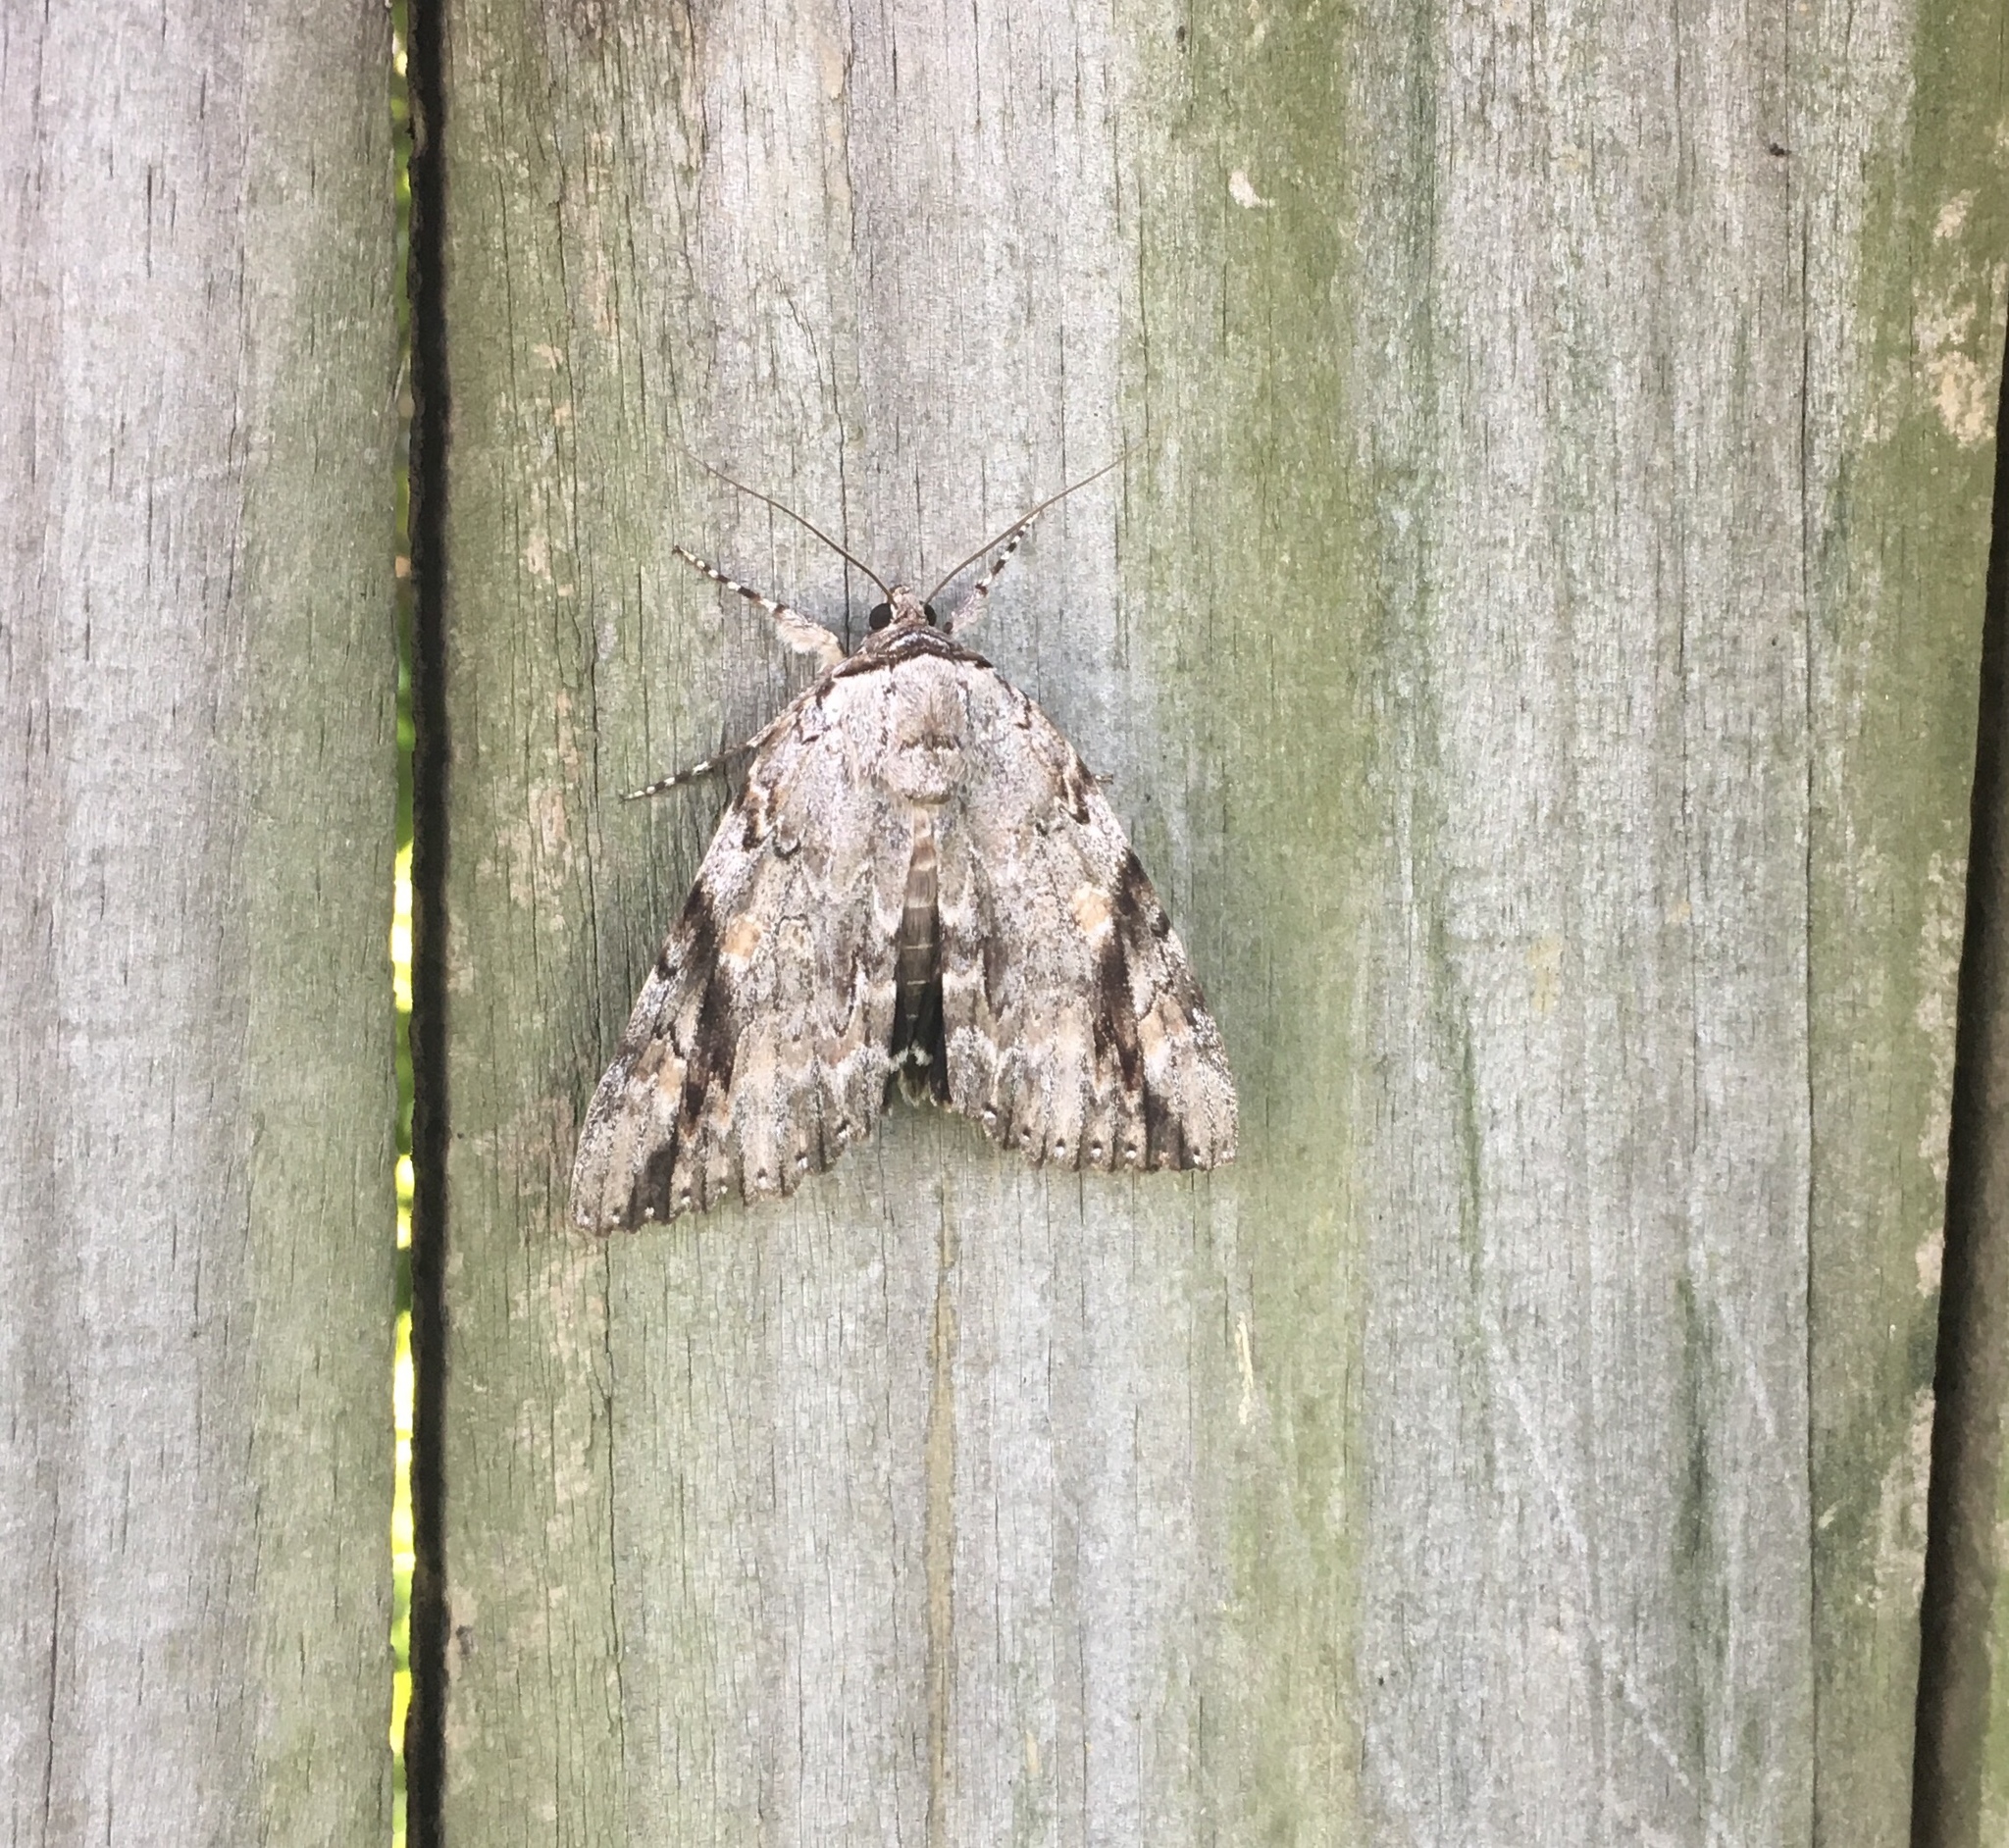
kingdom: Animalia
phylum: Arthropoda
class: Insecta
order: Lepidoptera
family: Erebidae
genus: Catocala
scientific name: Catocala maestosa
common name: Sad underwing
